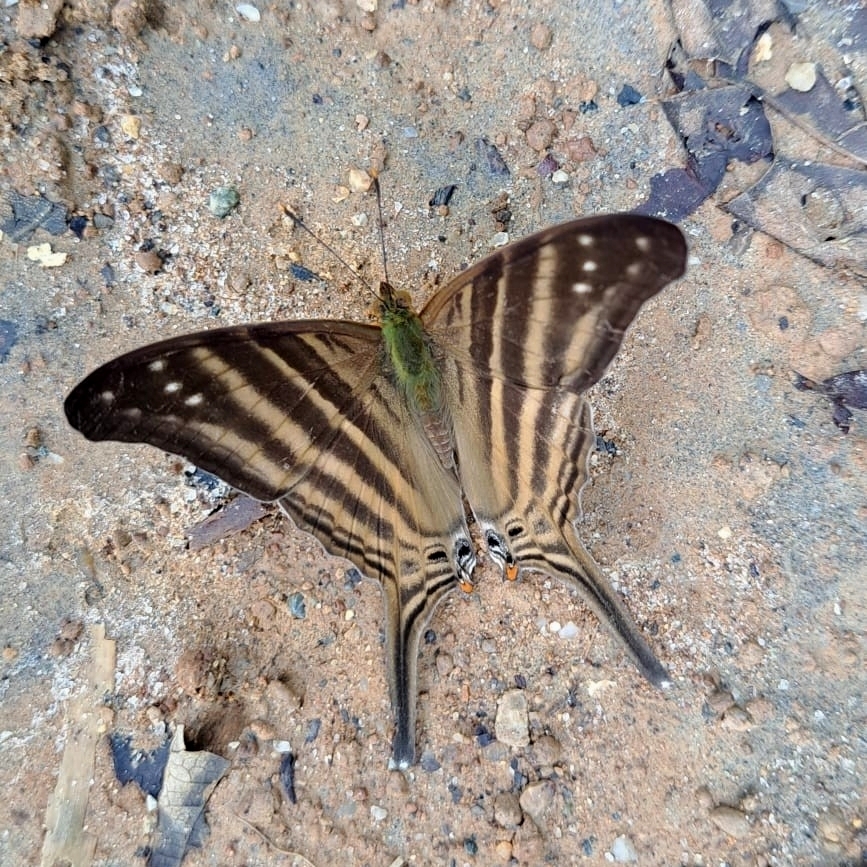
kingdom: Animalia
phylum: Arthropoda
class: Insecta
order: Lepidoptera
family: Nymphalidae
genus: Marpesia
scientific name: Marpesia chiron
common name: Many-banded daggerwing
